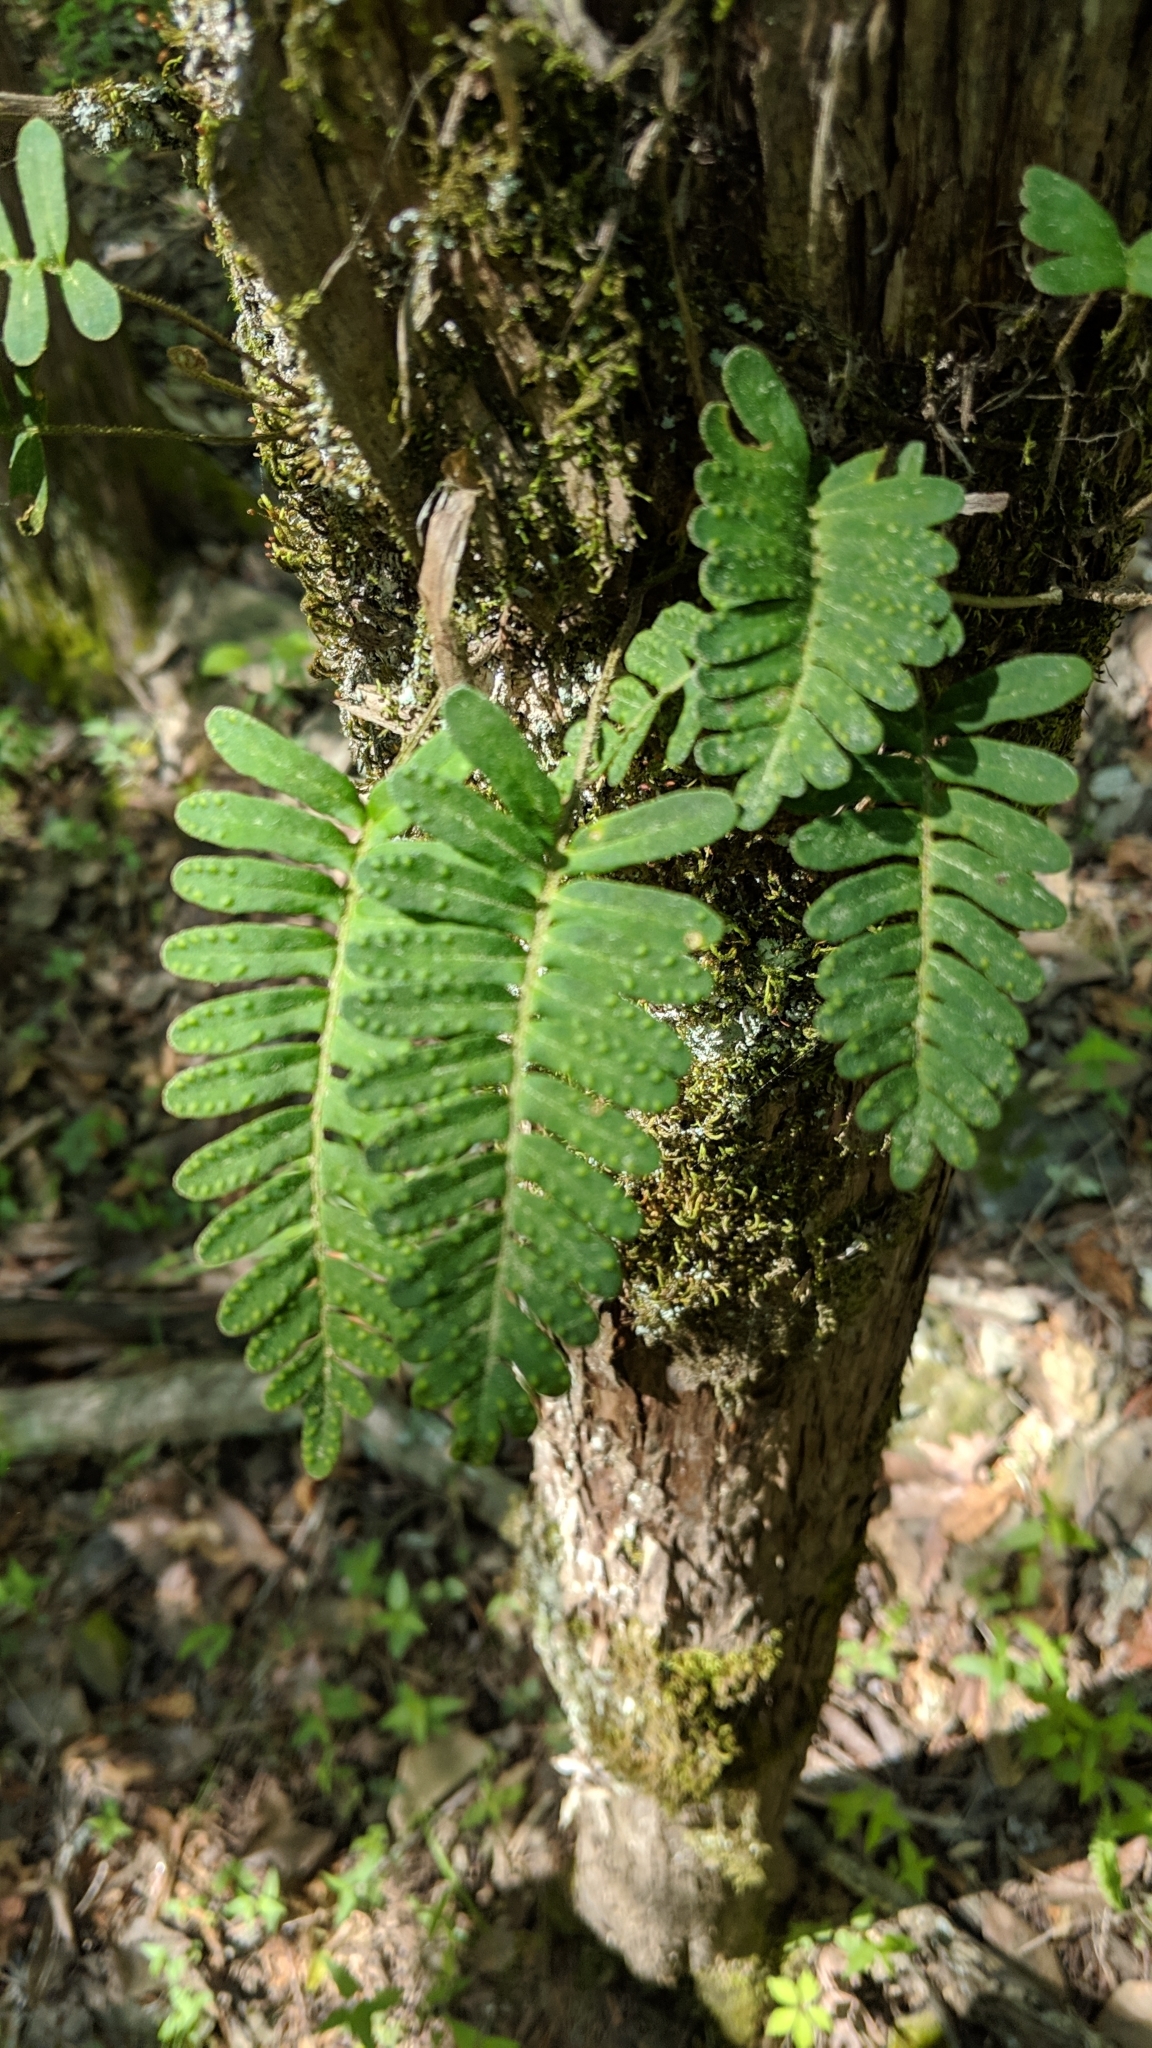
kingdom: Plantae
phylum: Tracheophyta
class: Polypodiopsida
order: Polypodiales
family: Polypodiaceae
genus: Pleopeltis
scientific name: Pleopeltis michauxiana
